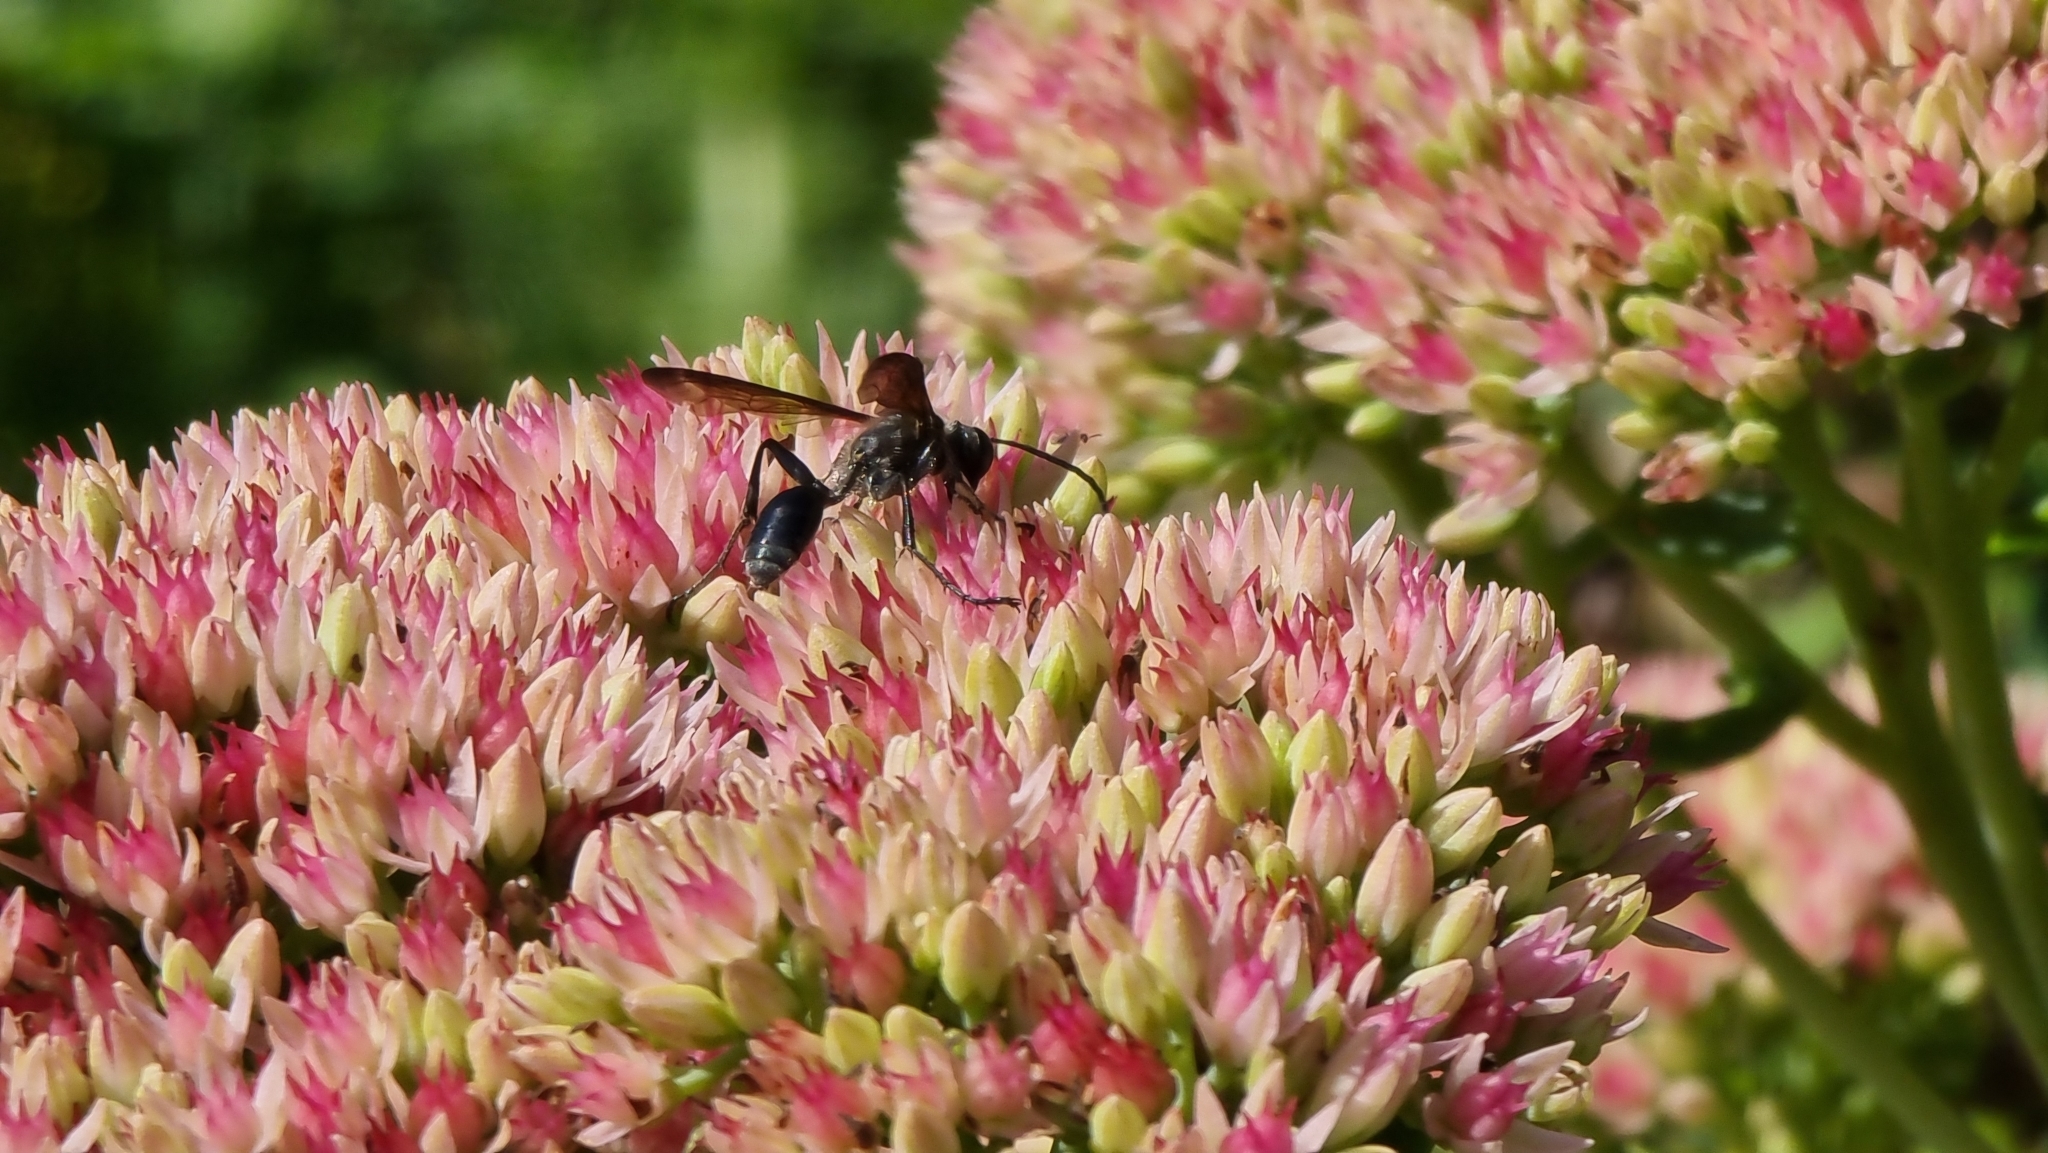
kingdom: Animalia
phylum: Arthropoda
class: Insecta
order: Hymenoptera
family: Sphecidae
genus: Isodontia
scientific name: Isodontia mexicana
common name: Mud dauber
